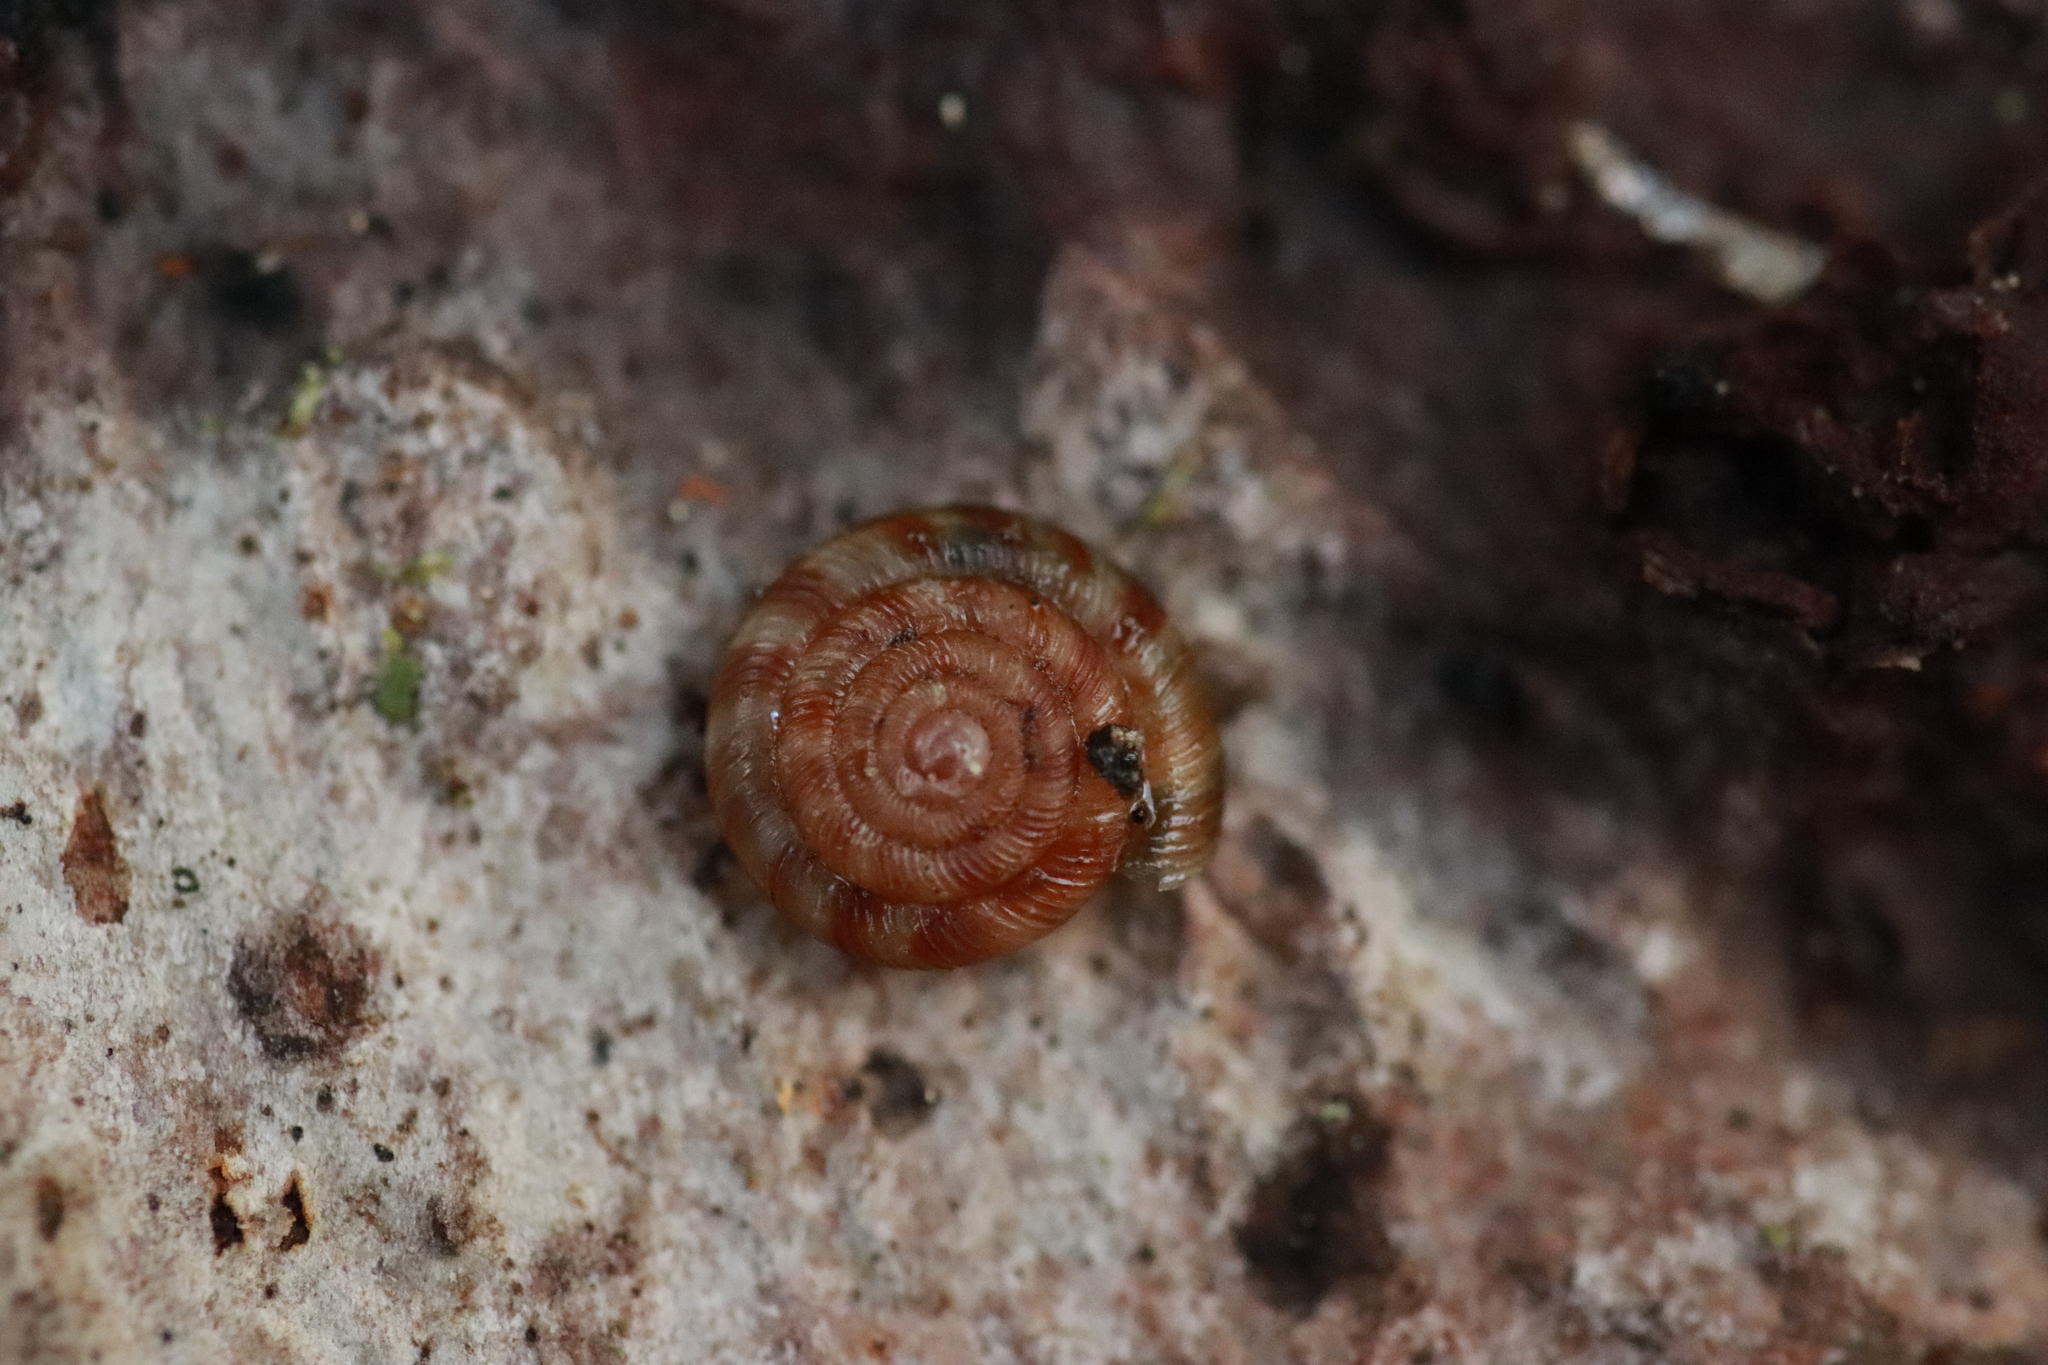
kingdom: Animalia
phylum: Mollusca
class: Gastropoda
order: Stylommatophora
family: Discidae
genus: Discus
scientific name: Discus rotundatus
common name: Rounded snail
